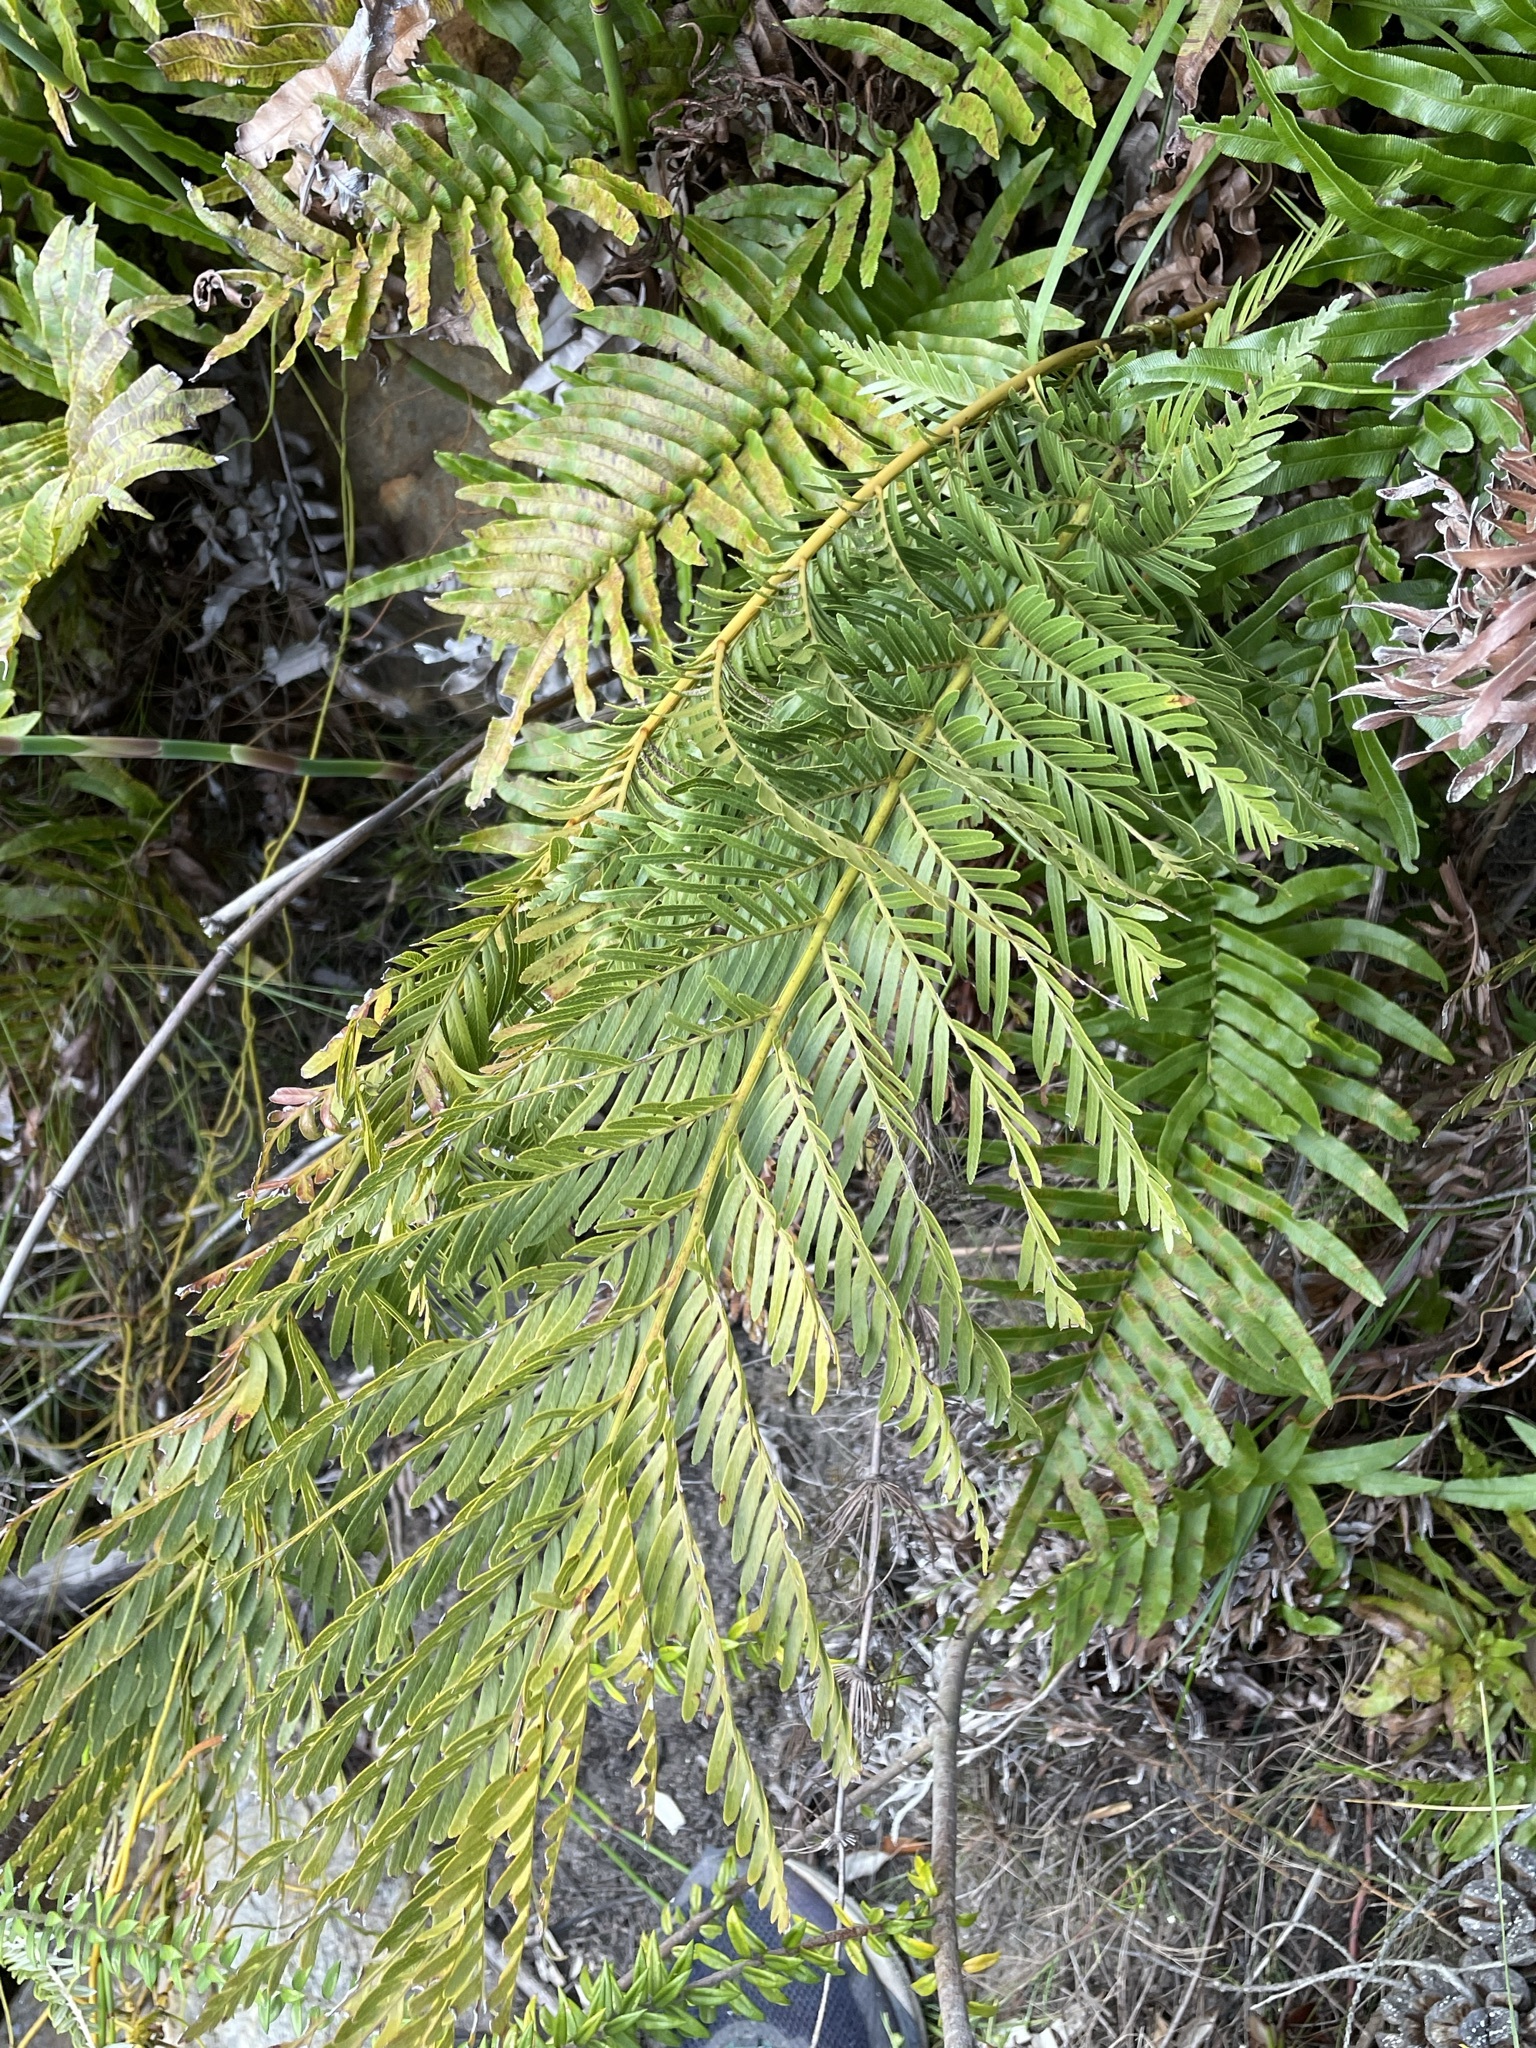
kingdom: Plantae
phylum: Tracheophyta
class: Polypodiopsida
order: Osmundales
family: Osmundaceae
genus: Todea
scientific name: Todea barbara
